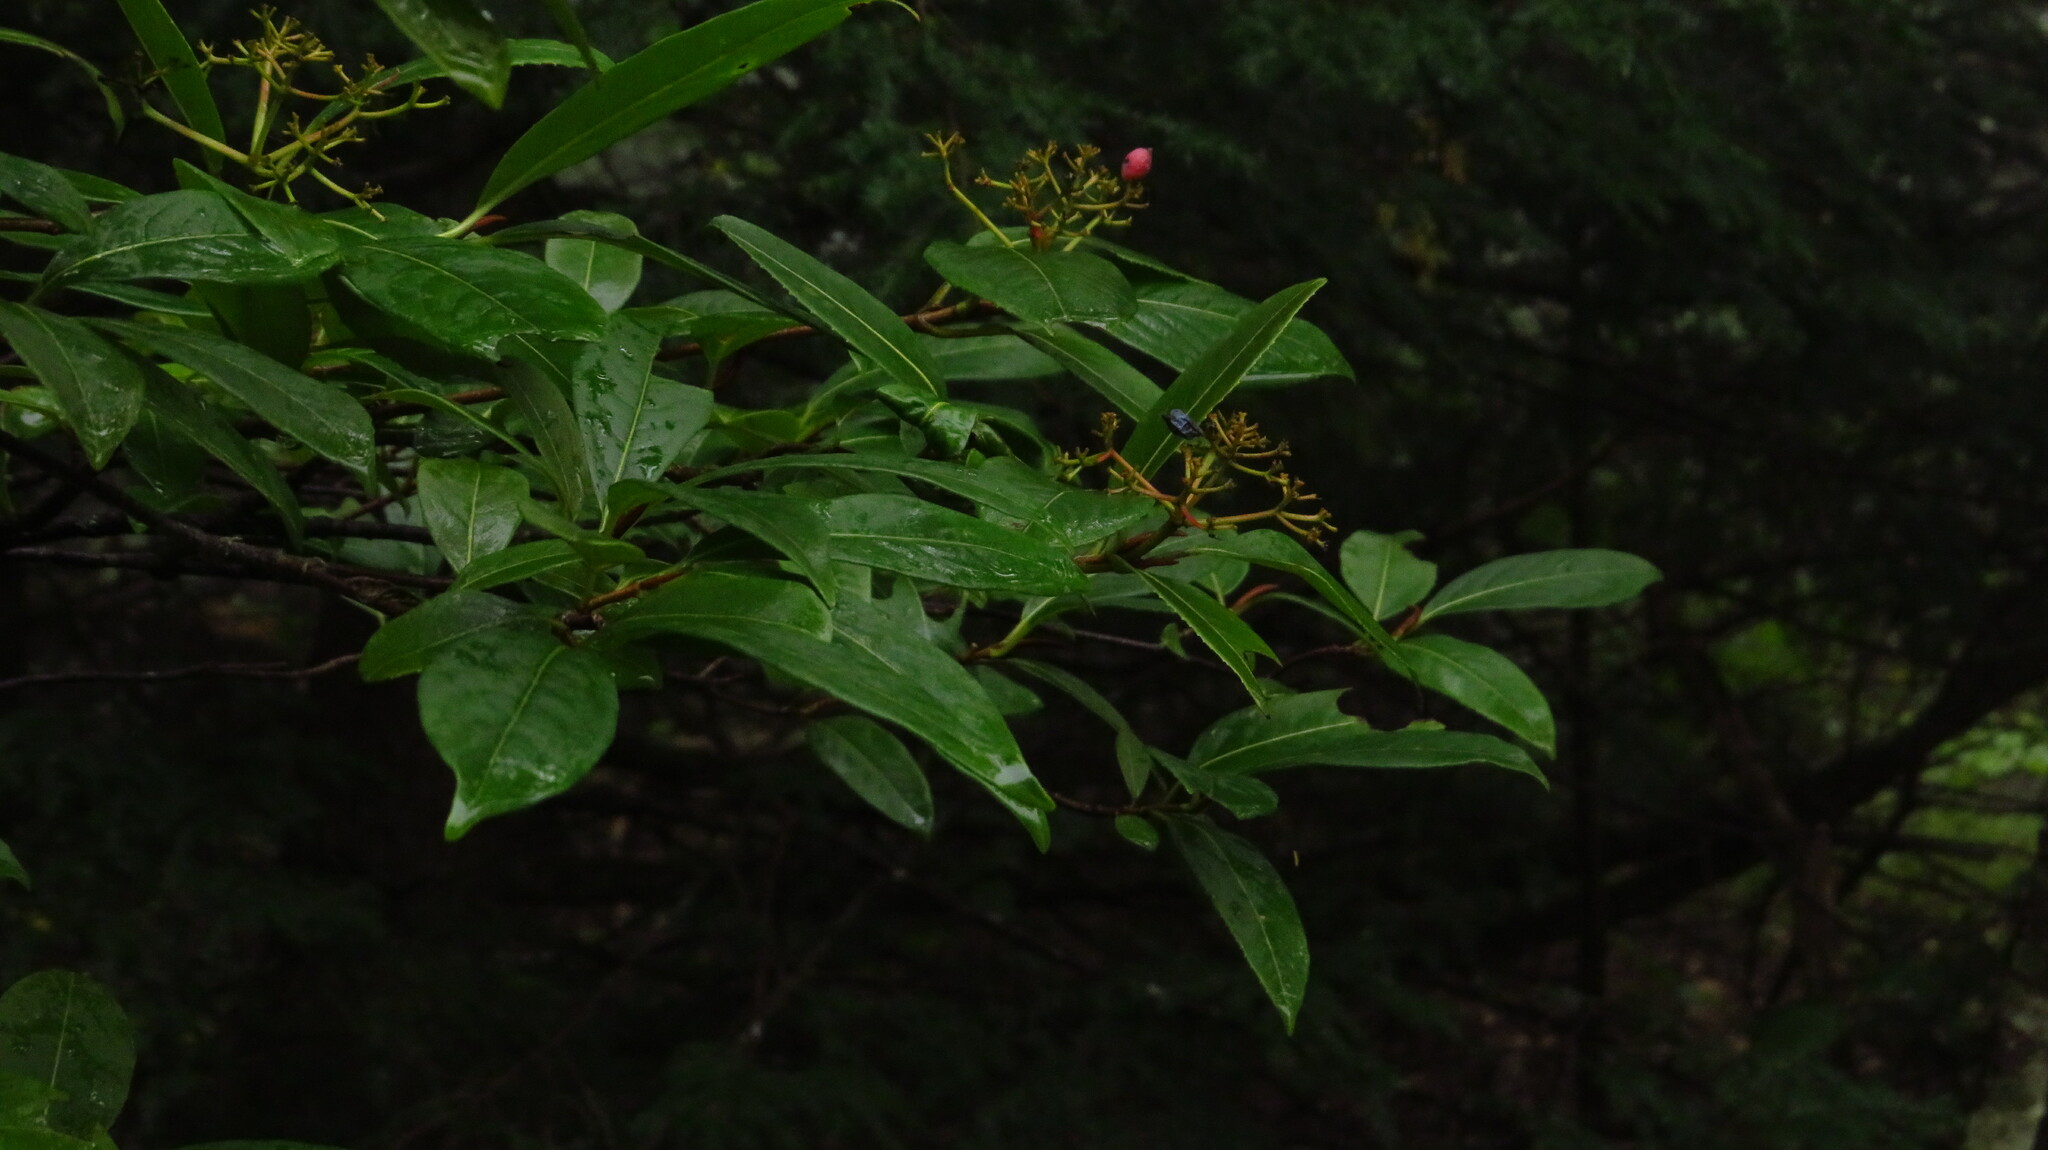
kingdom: Plantae
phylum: Tracheophyta
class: Magnoliopsida
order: Dipsacales
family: Viburnaceae
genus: Viburnum
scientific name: Viburnum cassinoides
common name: Swamp haw
